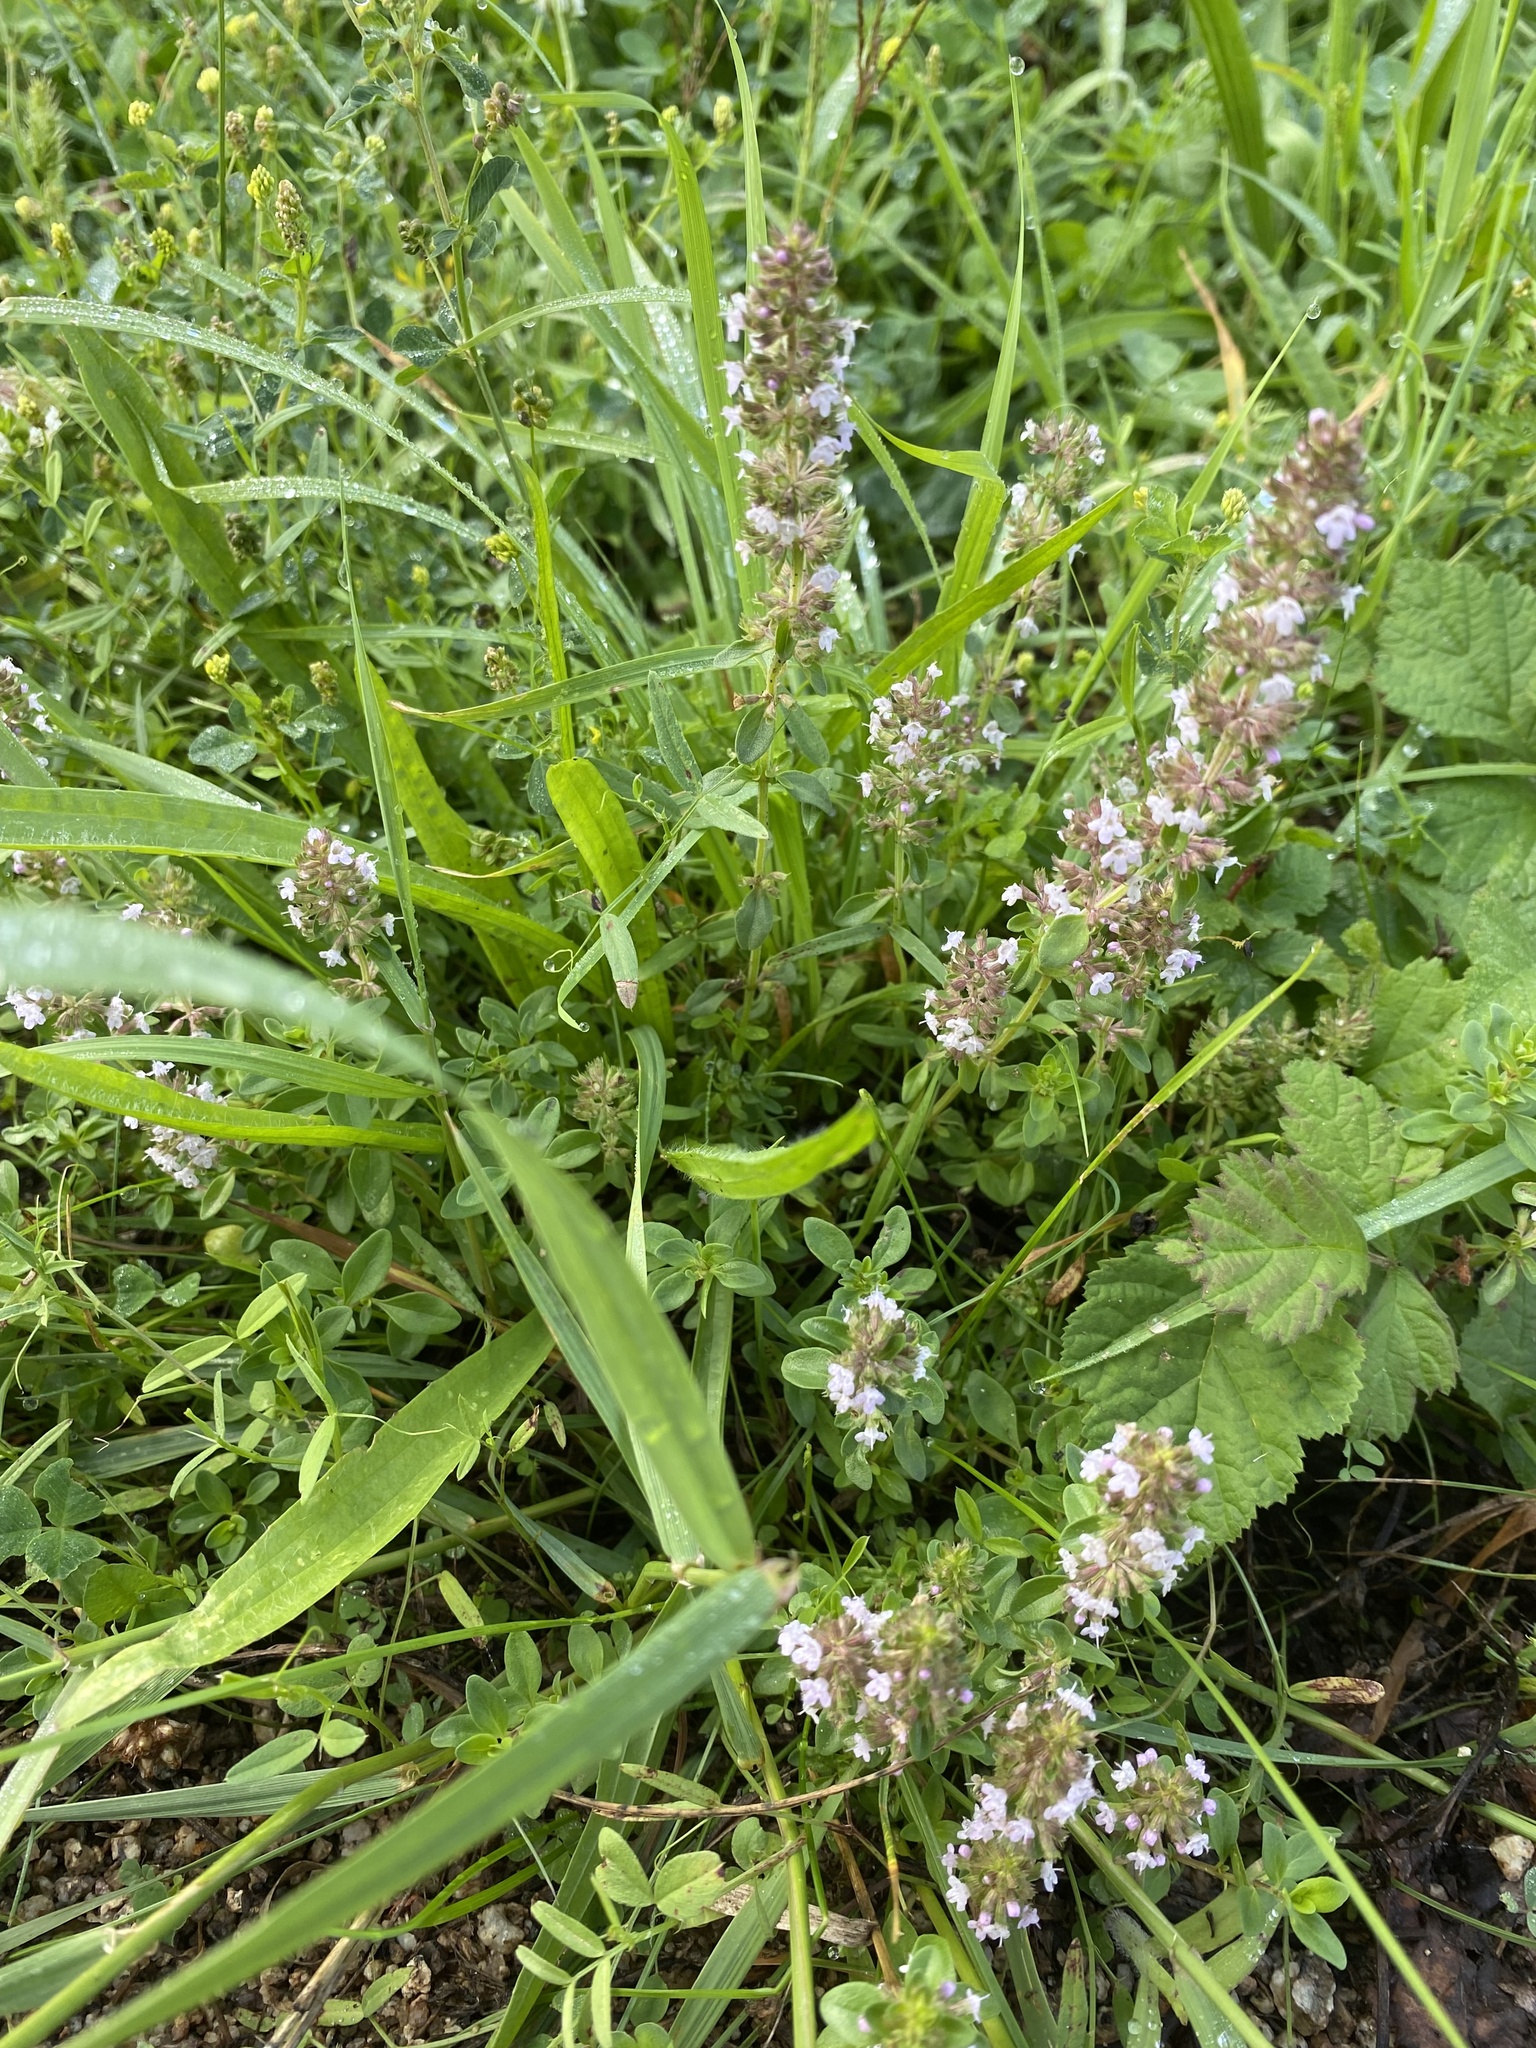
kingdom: Plantae
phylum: Tracheophyta
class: Magnoliopsida
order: Lamiales
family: Lamiaceae
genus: Thymus
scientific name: Thymus pulegioides
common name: Large thyme
